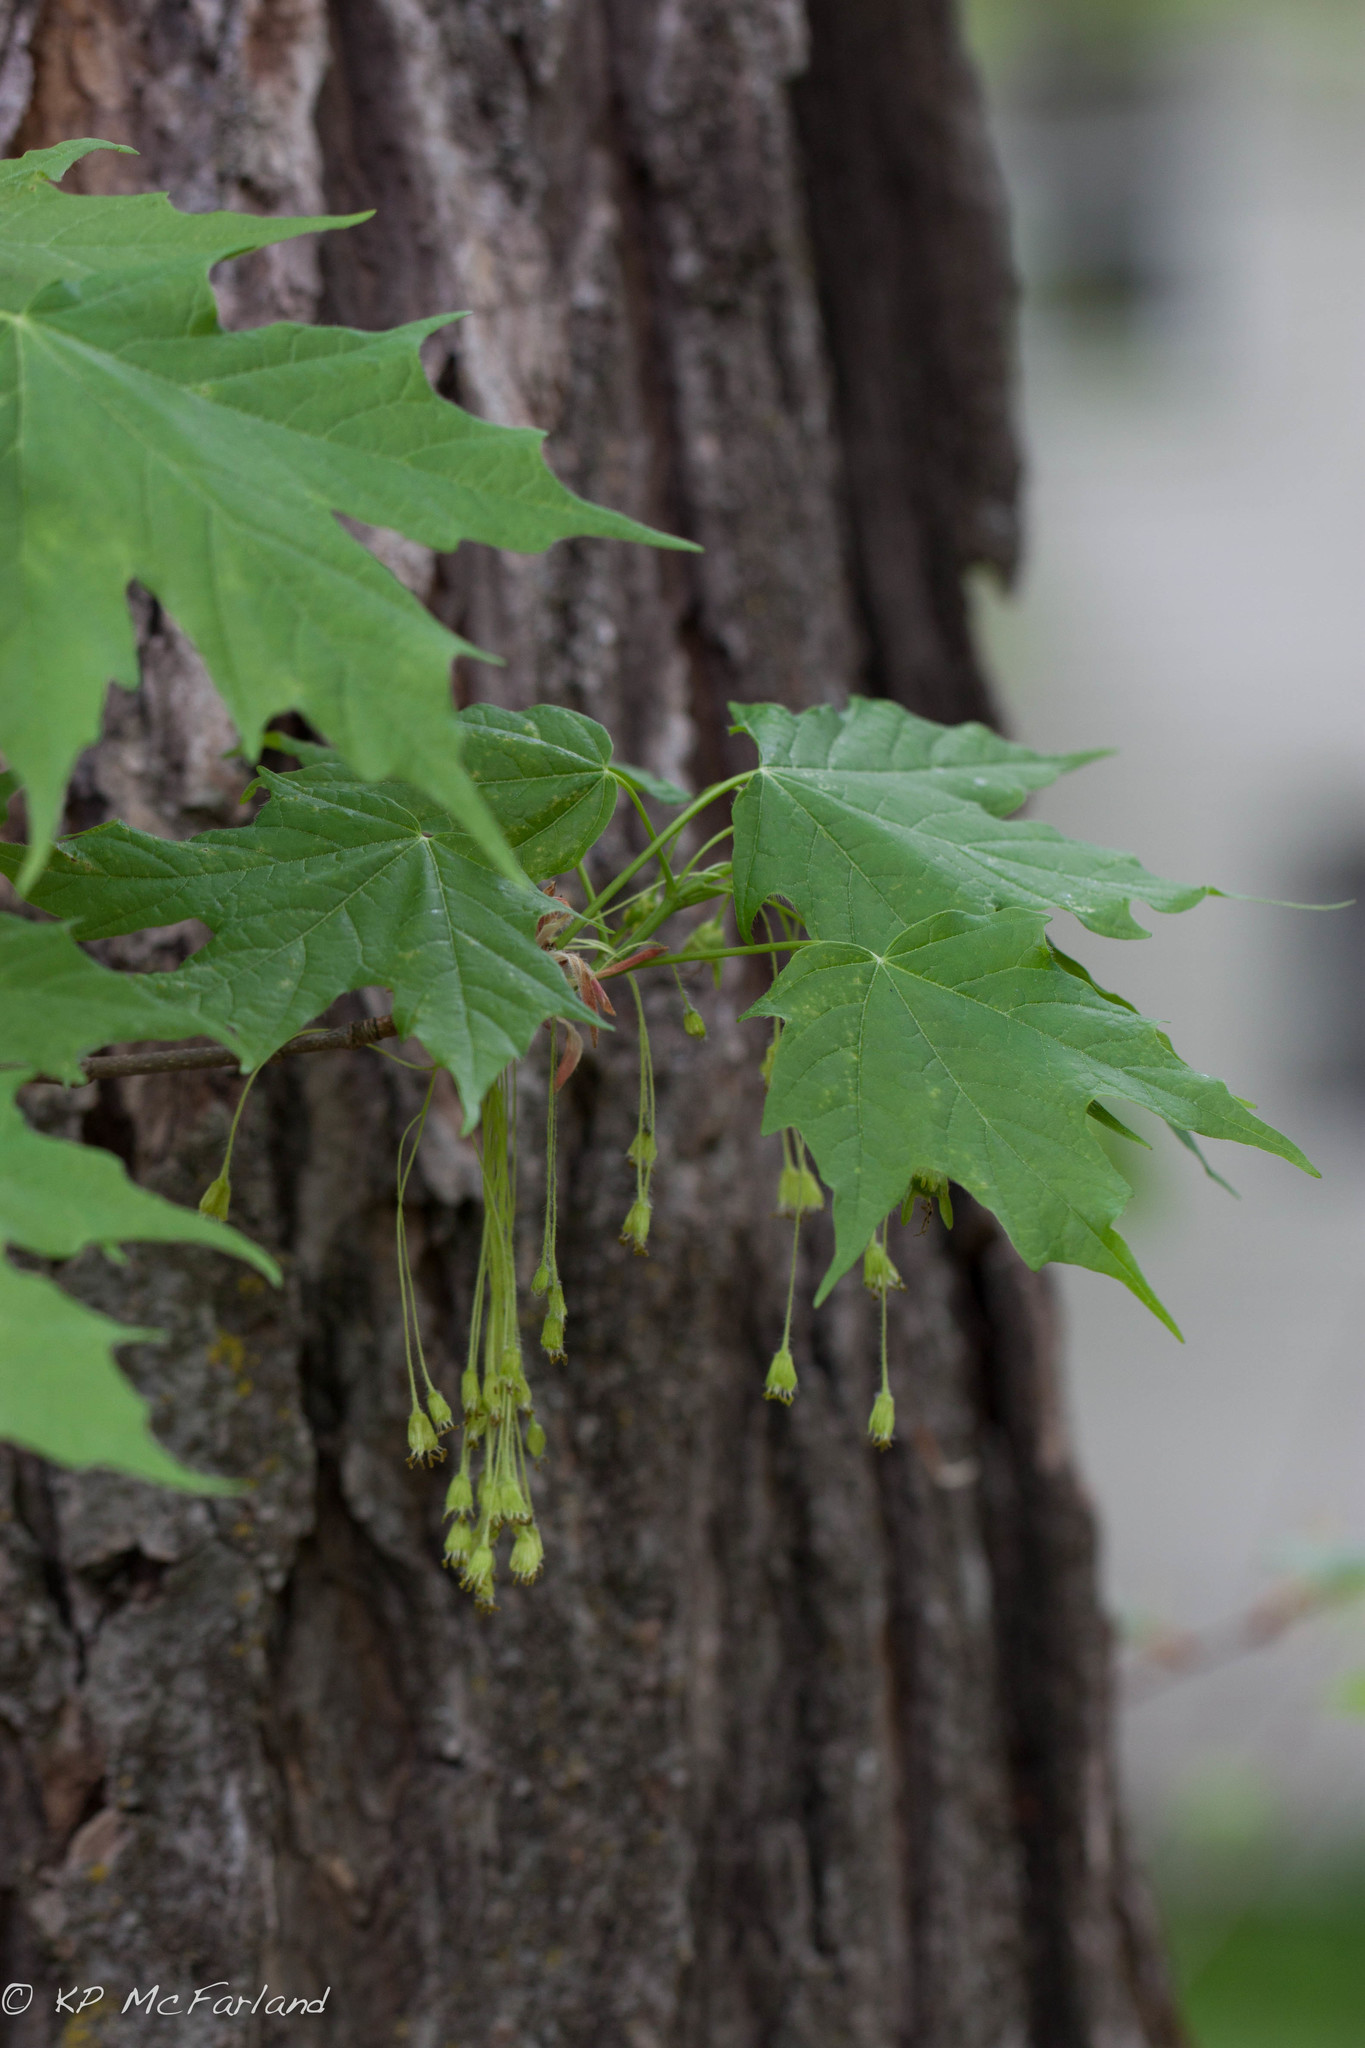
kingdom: Plantae
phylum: Tracheophyta
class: Magnoliopsida
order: Sapindales
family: Sapindaceae
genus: Acer
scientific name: Acer saccharum
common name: Sugar maple
